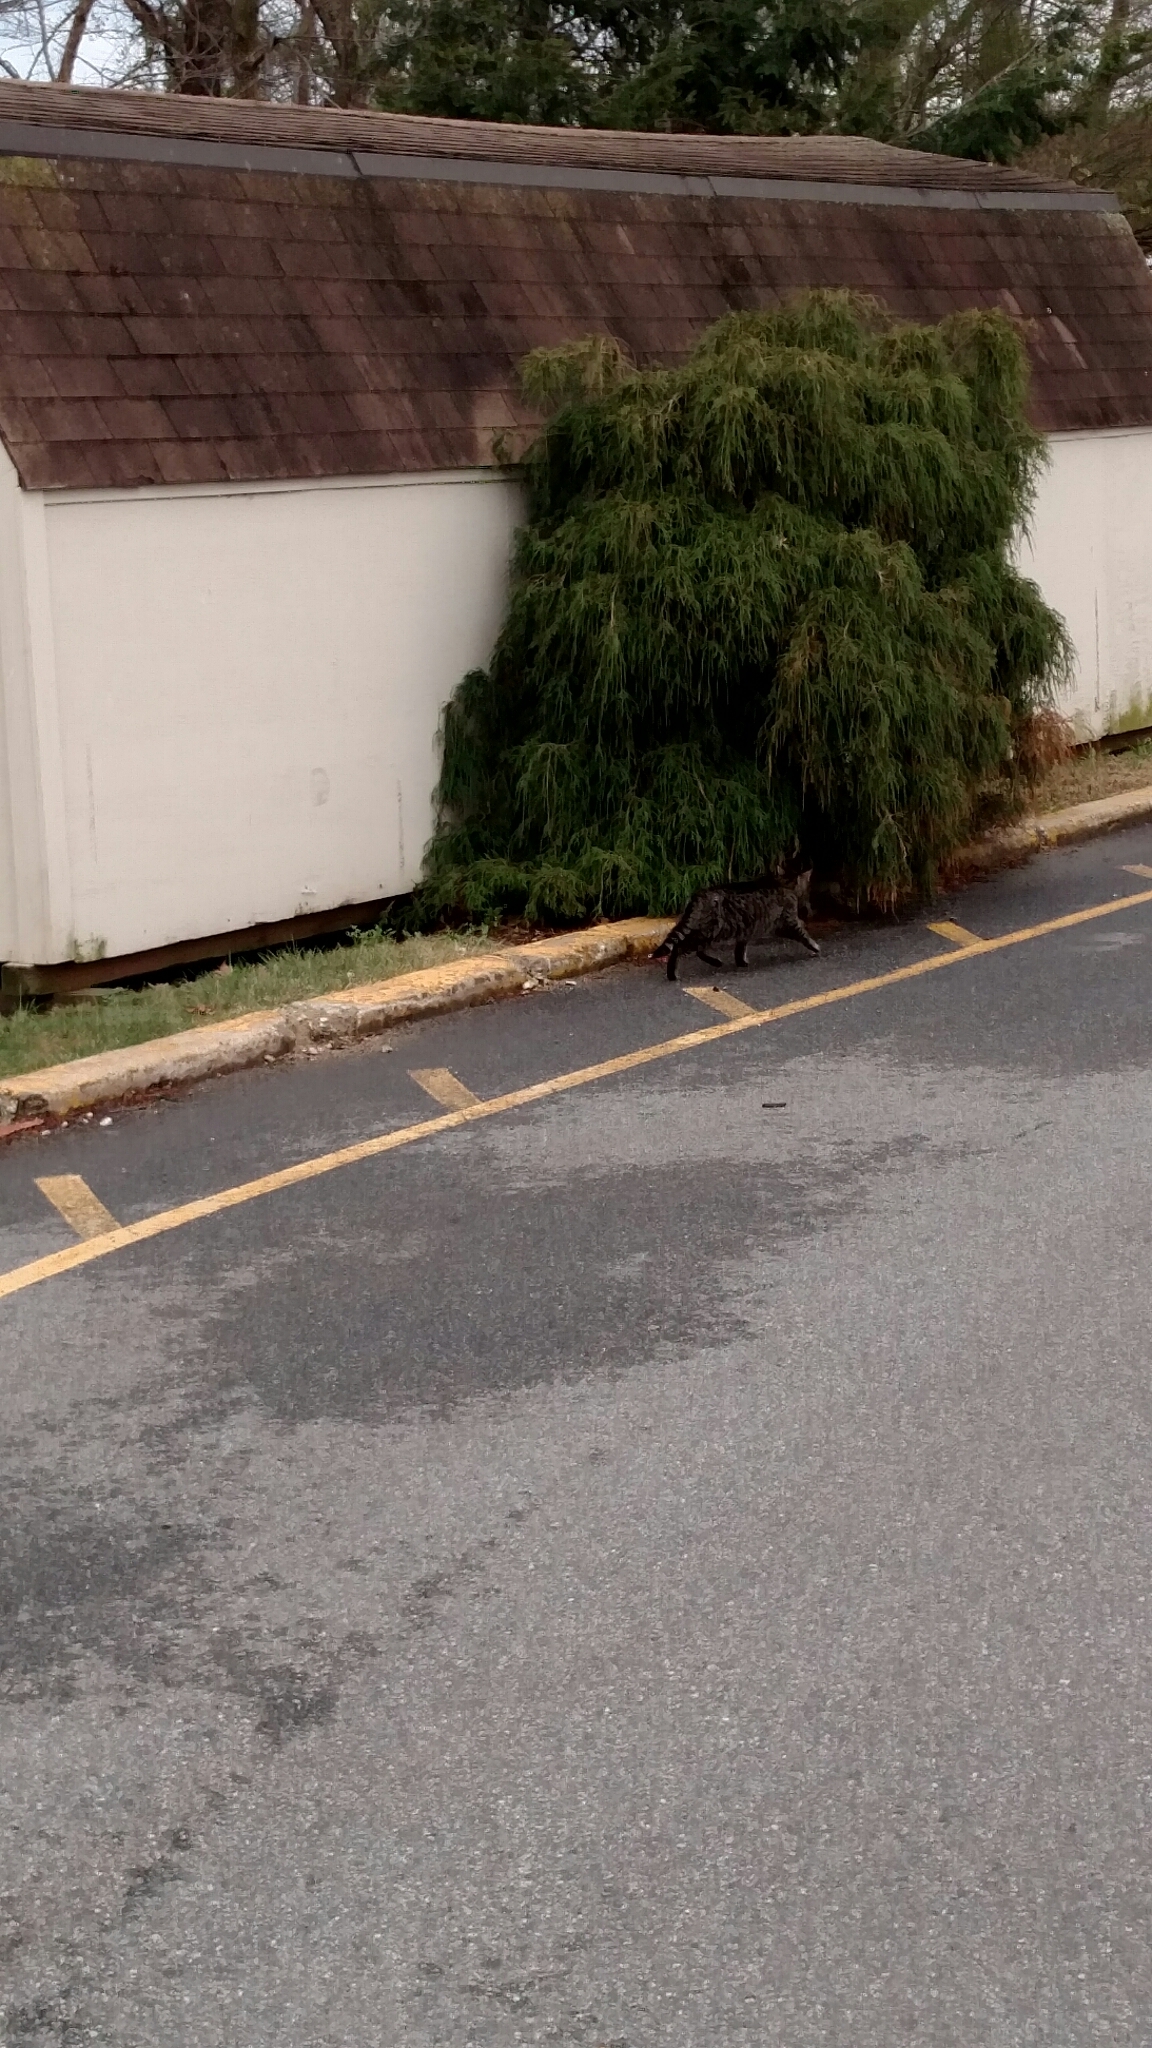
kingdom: Animalia
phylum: Chordata
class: Mammalia
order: Carnivora
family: Felidae
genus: Felis
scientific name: Felis catus
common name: Domestic cat
